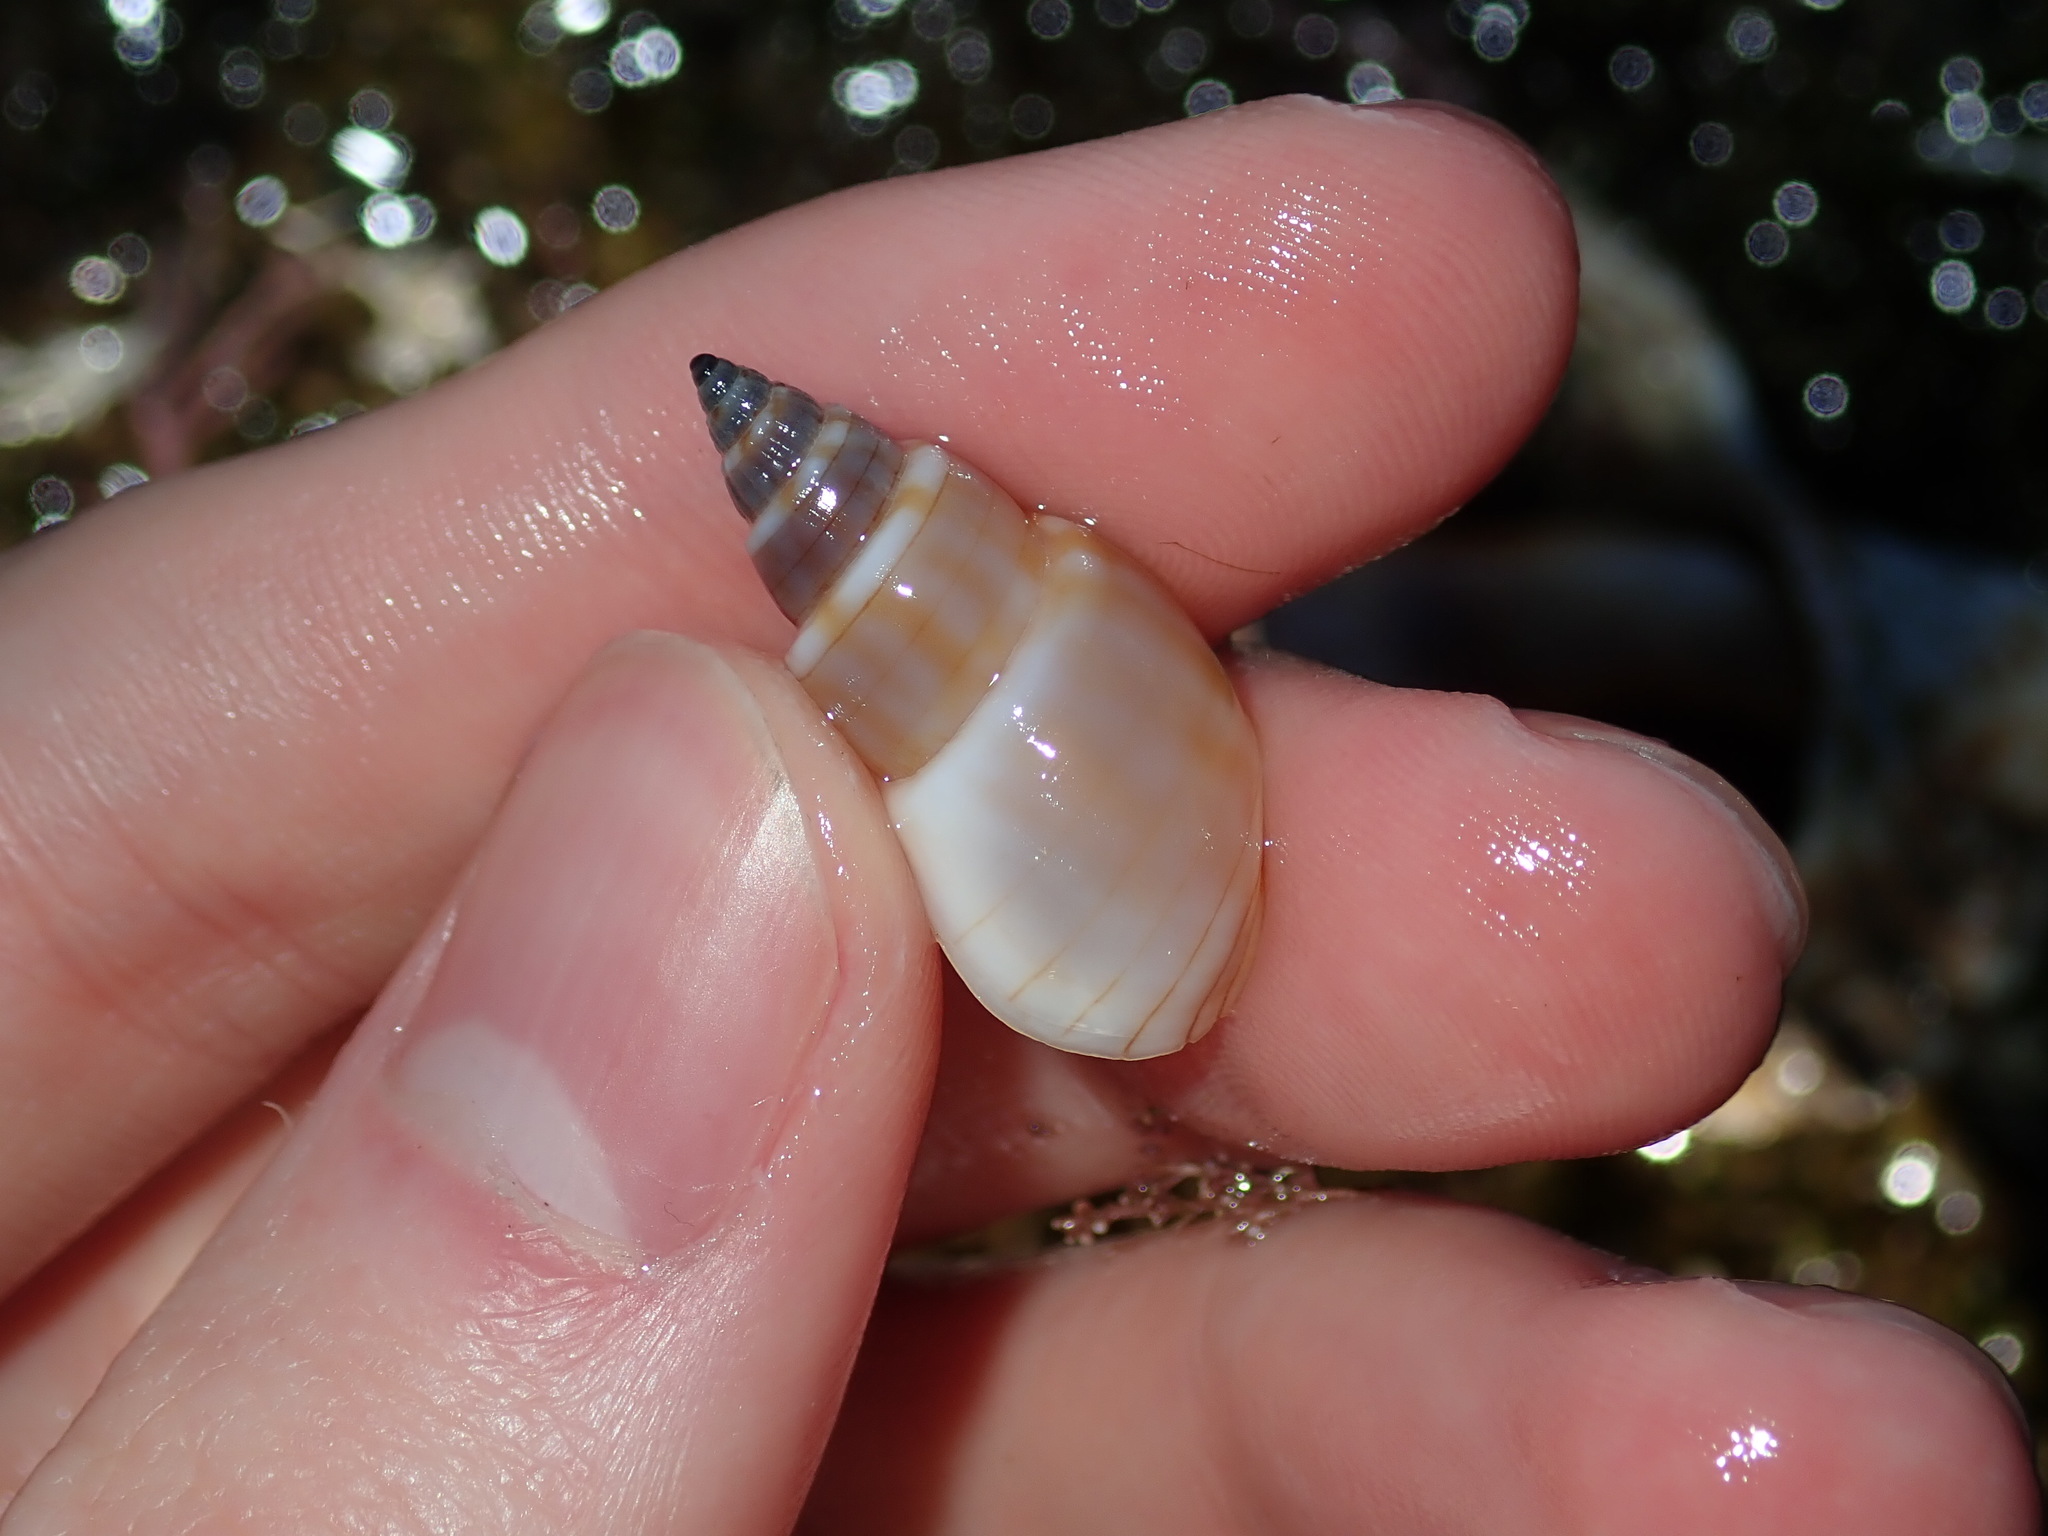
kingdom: Animalia
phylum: Mollusca
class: Gastropoda
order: Neogastropoda
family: Nassariidae
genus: Nassarius
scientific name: Nassarius particeps
